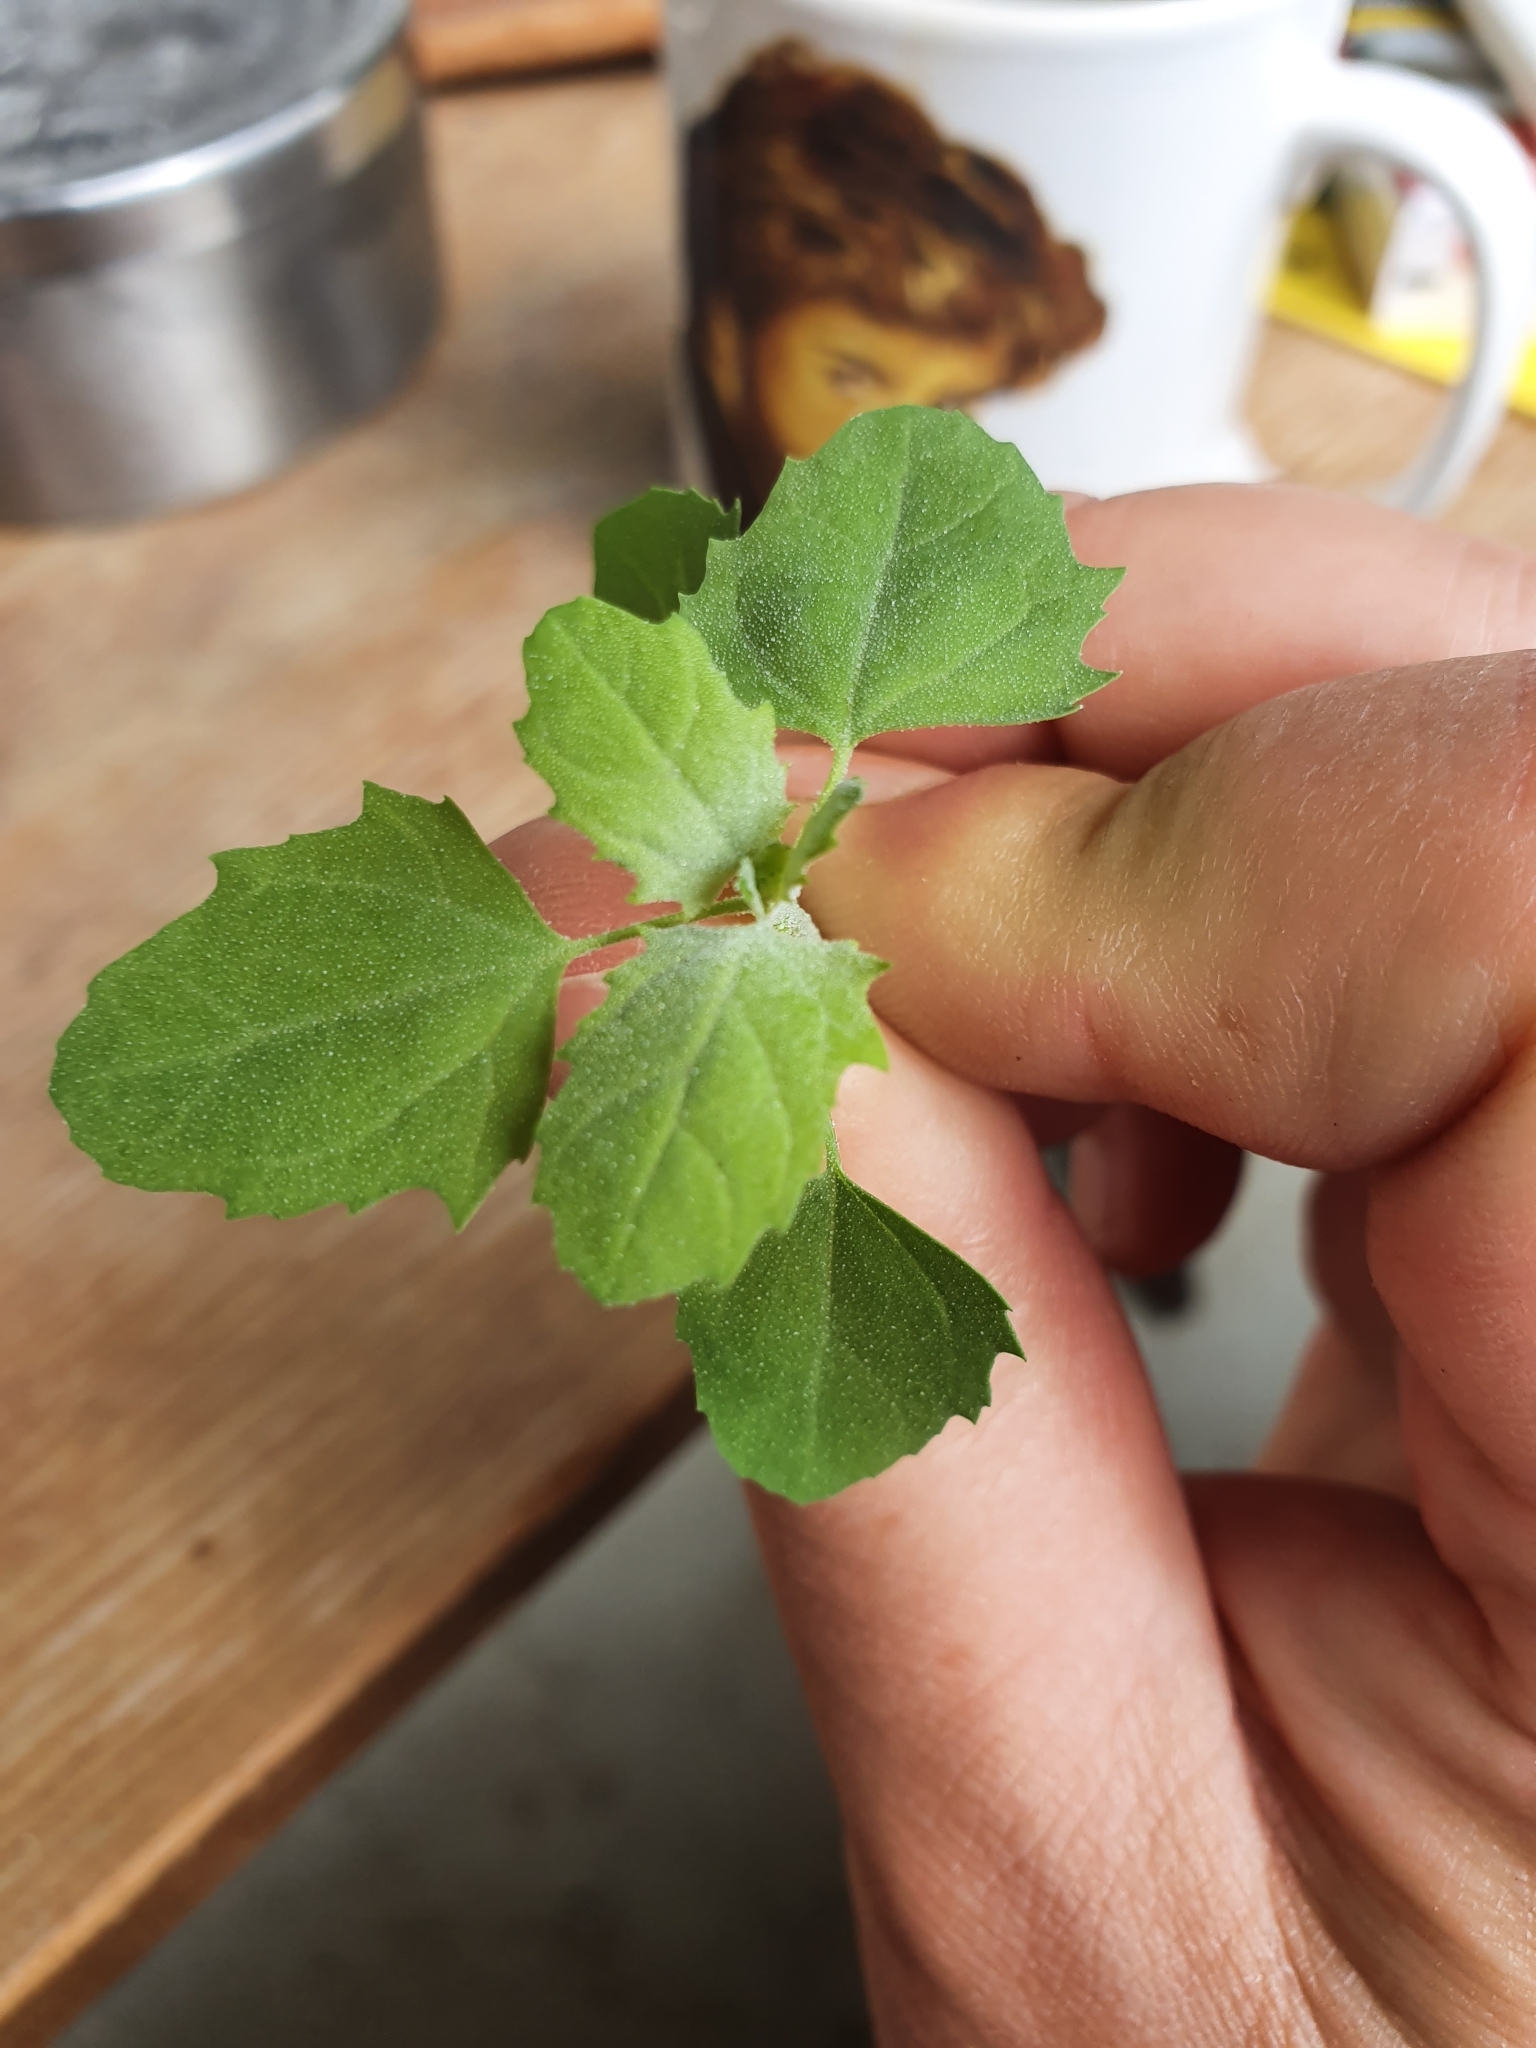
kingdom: Plantae
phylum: Tracheophyta
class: Magnoliopsida
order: Caryophyllales
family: Amaranthaceae
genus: Chenopodium
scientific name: Chenopodium album
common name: Fat-hen
